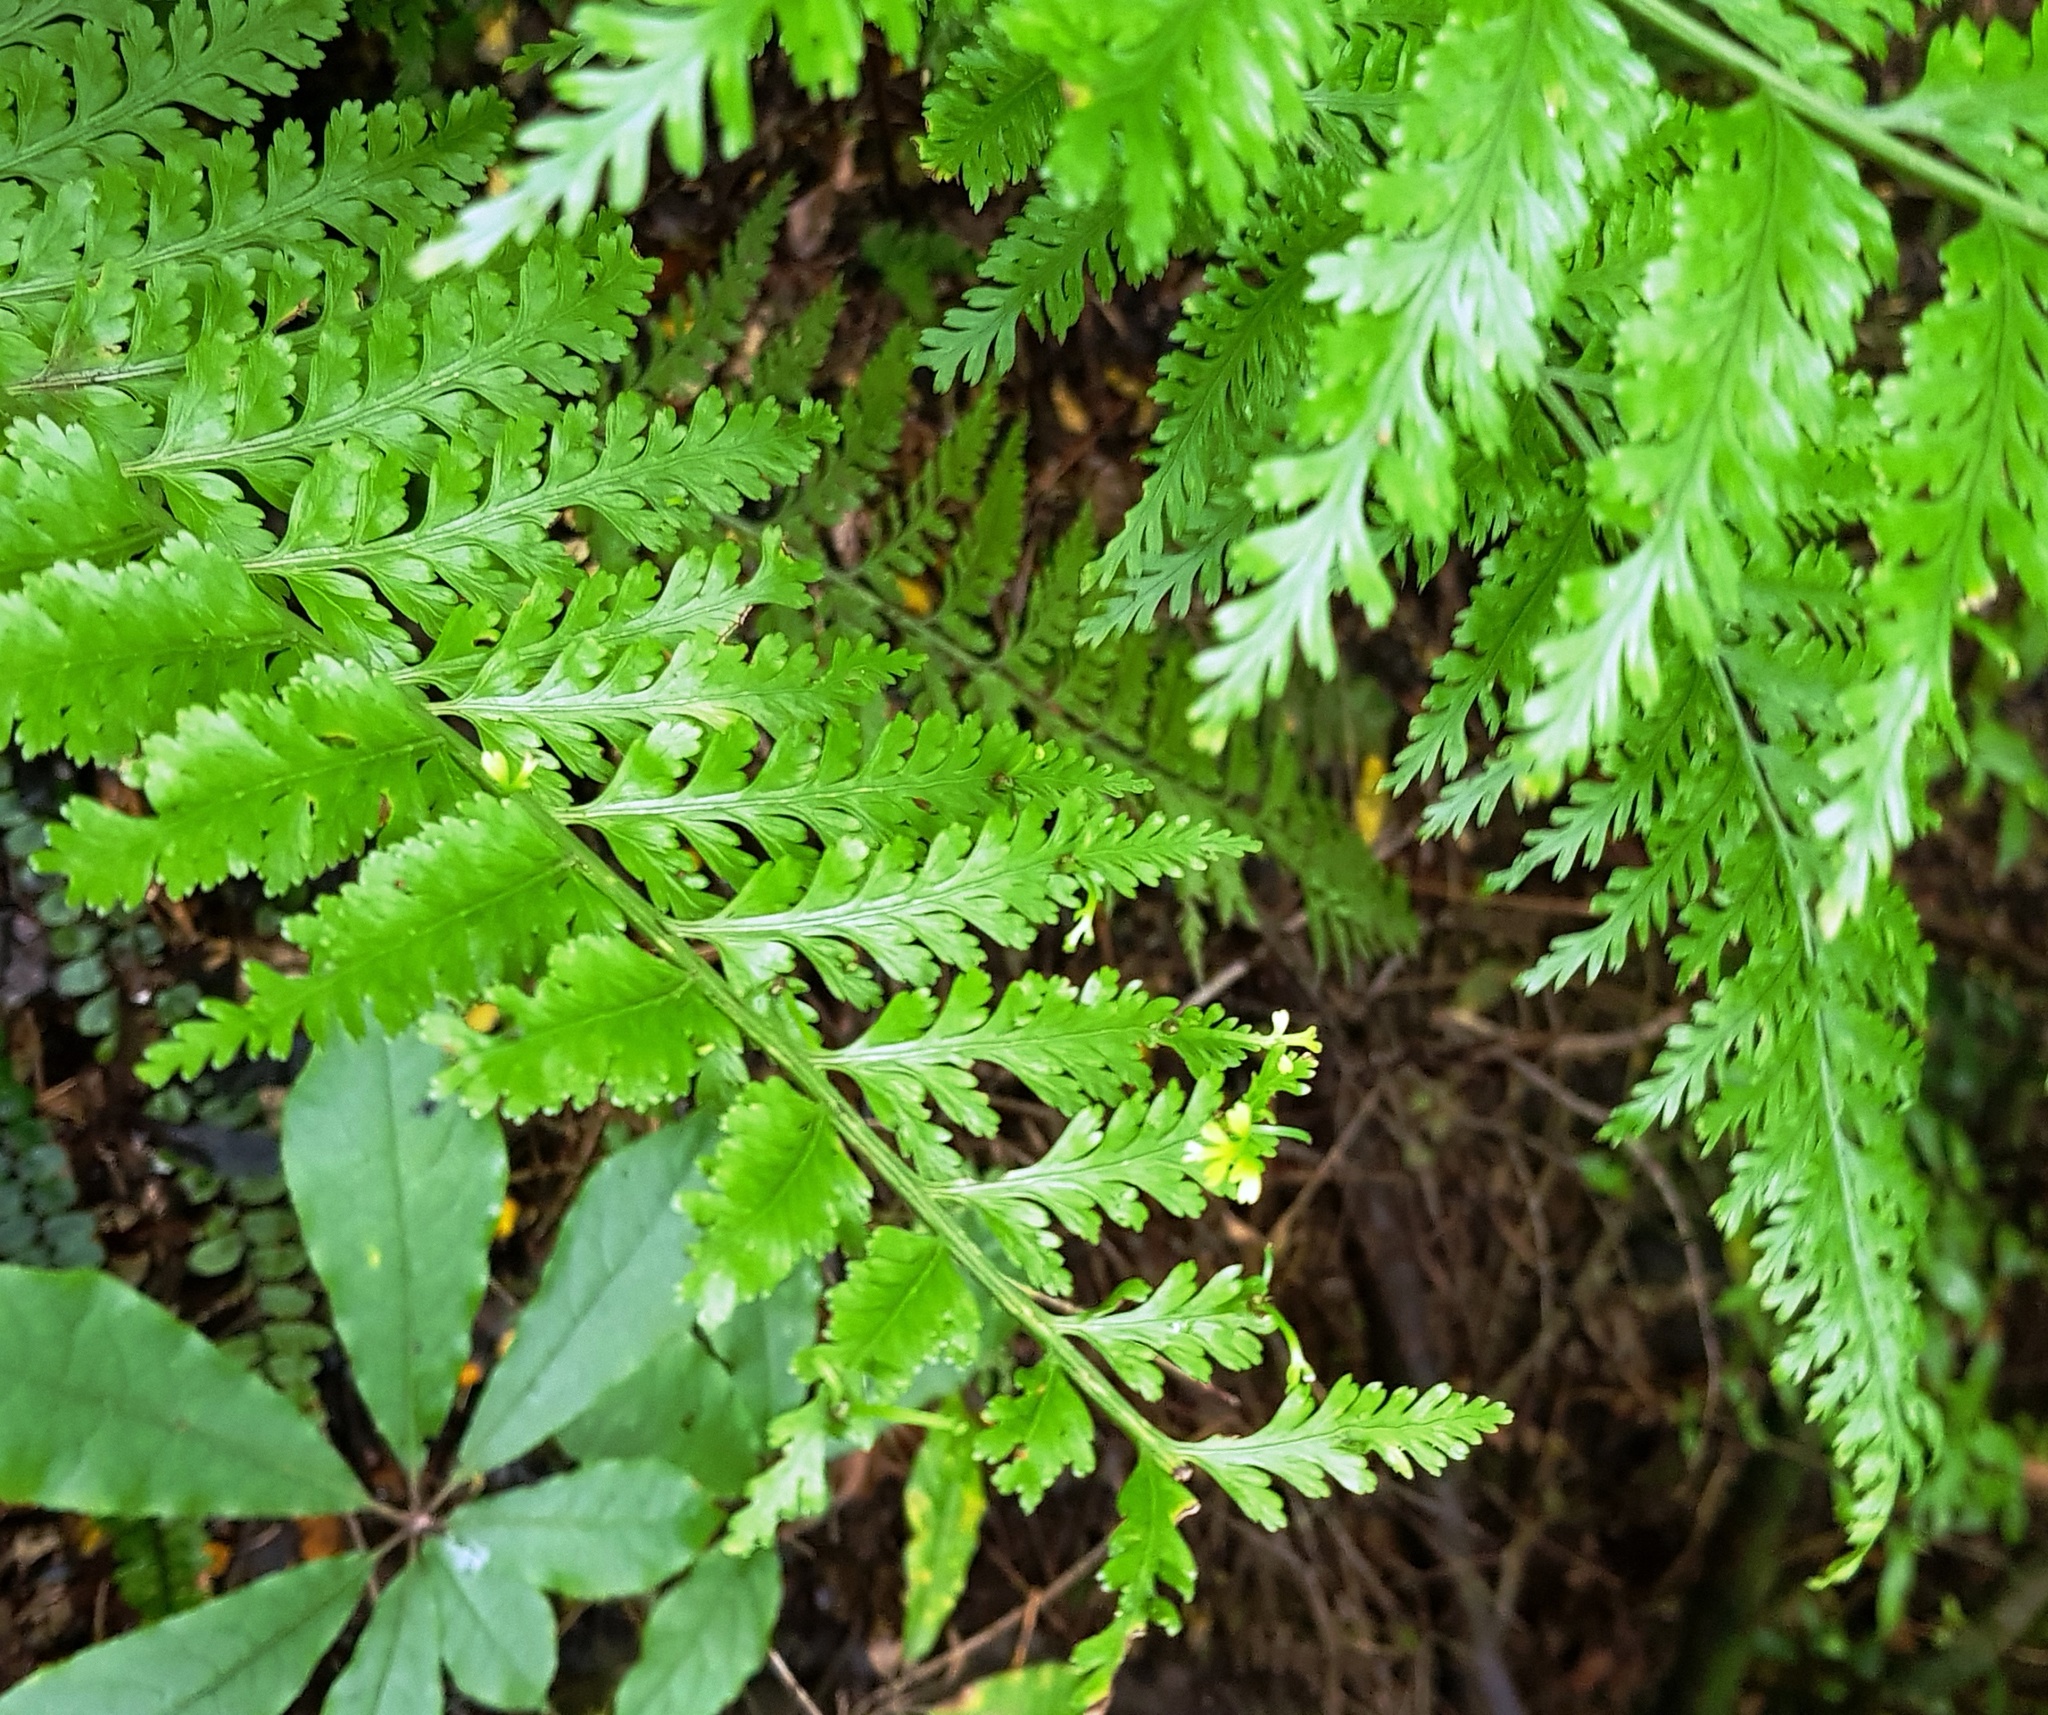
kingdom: Plantae
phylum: Tracheophyta
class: Polypodiopsida
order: Polypodiales
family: Aspleniaceae
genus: Asplenium
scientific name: Asplenium bulbiferum
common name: Mother fern
